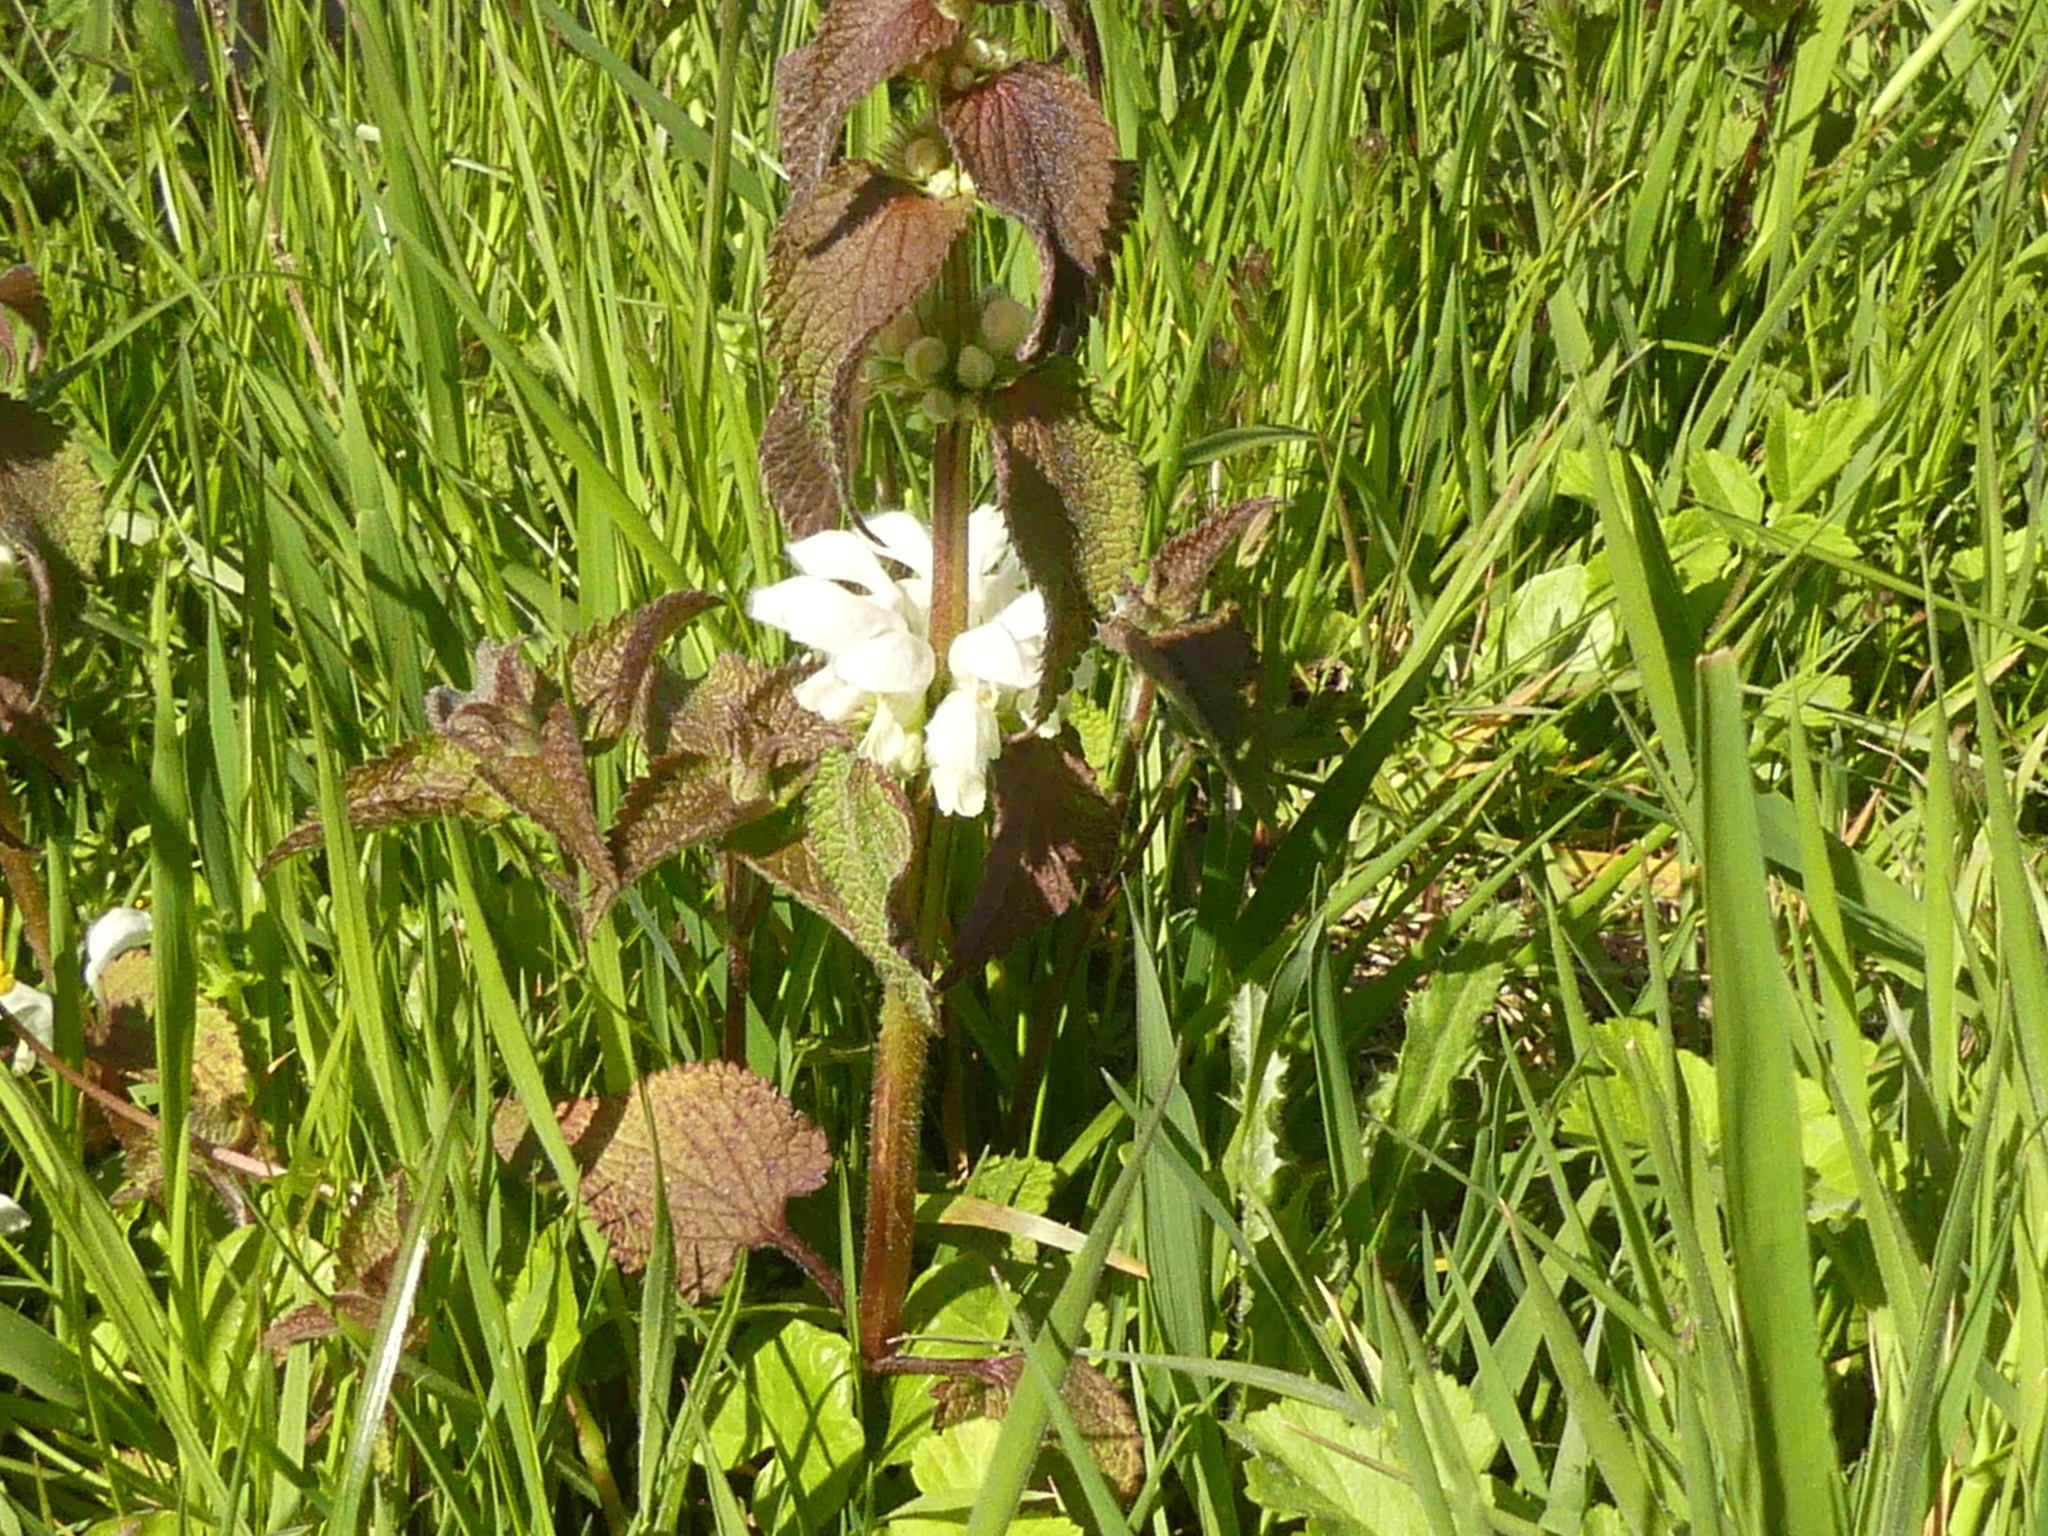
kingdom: Plantae
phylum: Tracheophyta
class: Magnoliopsida
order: Lamiales
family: Lamiaceae
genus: Lamium
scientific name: Lamium album
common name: White dead-nettle
